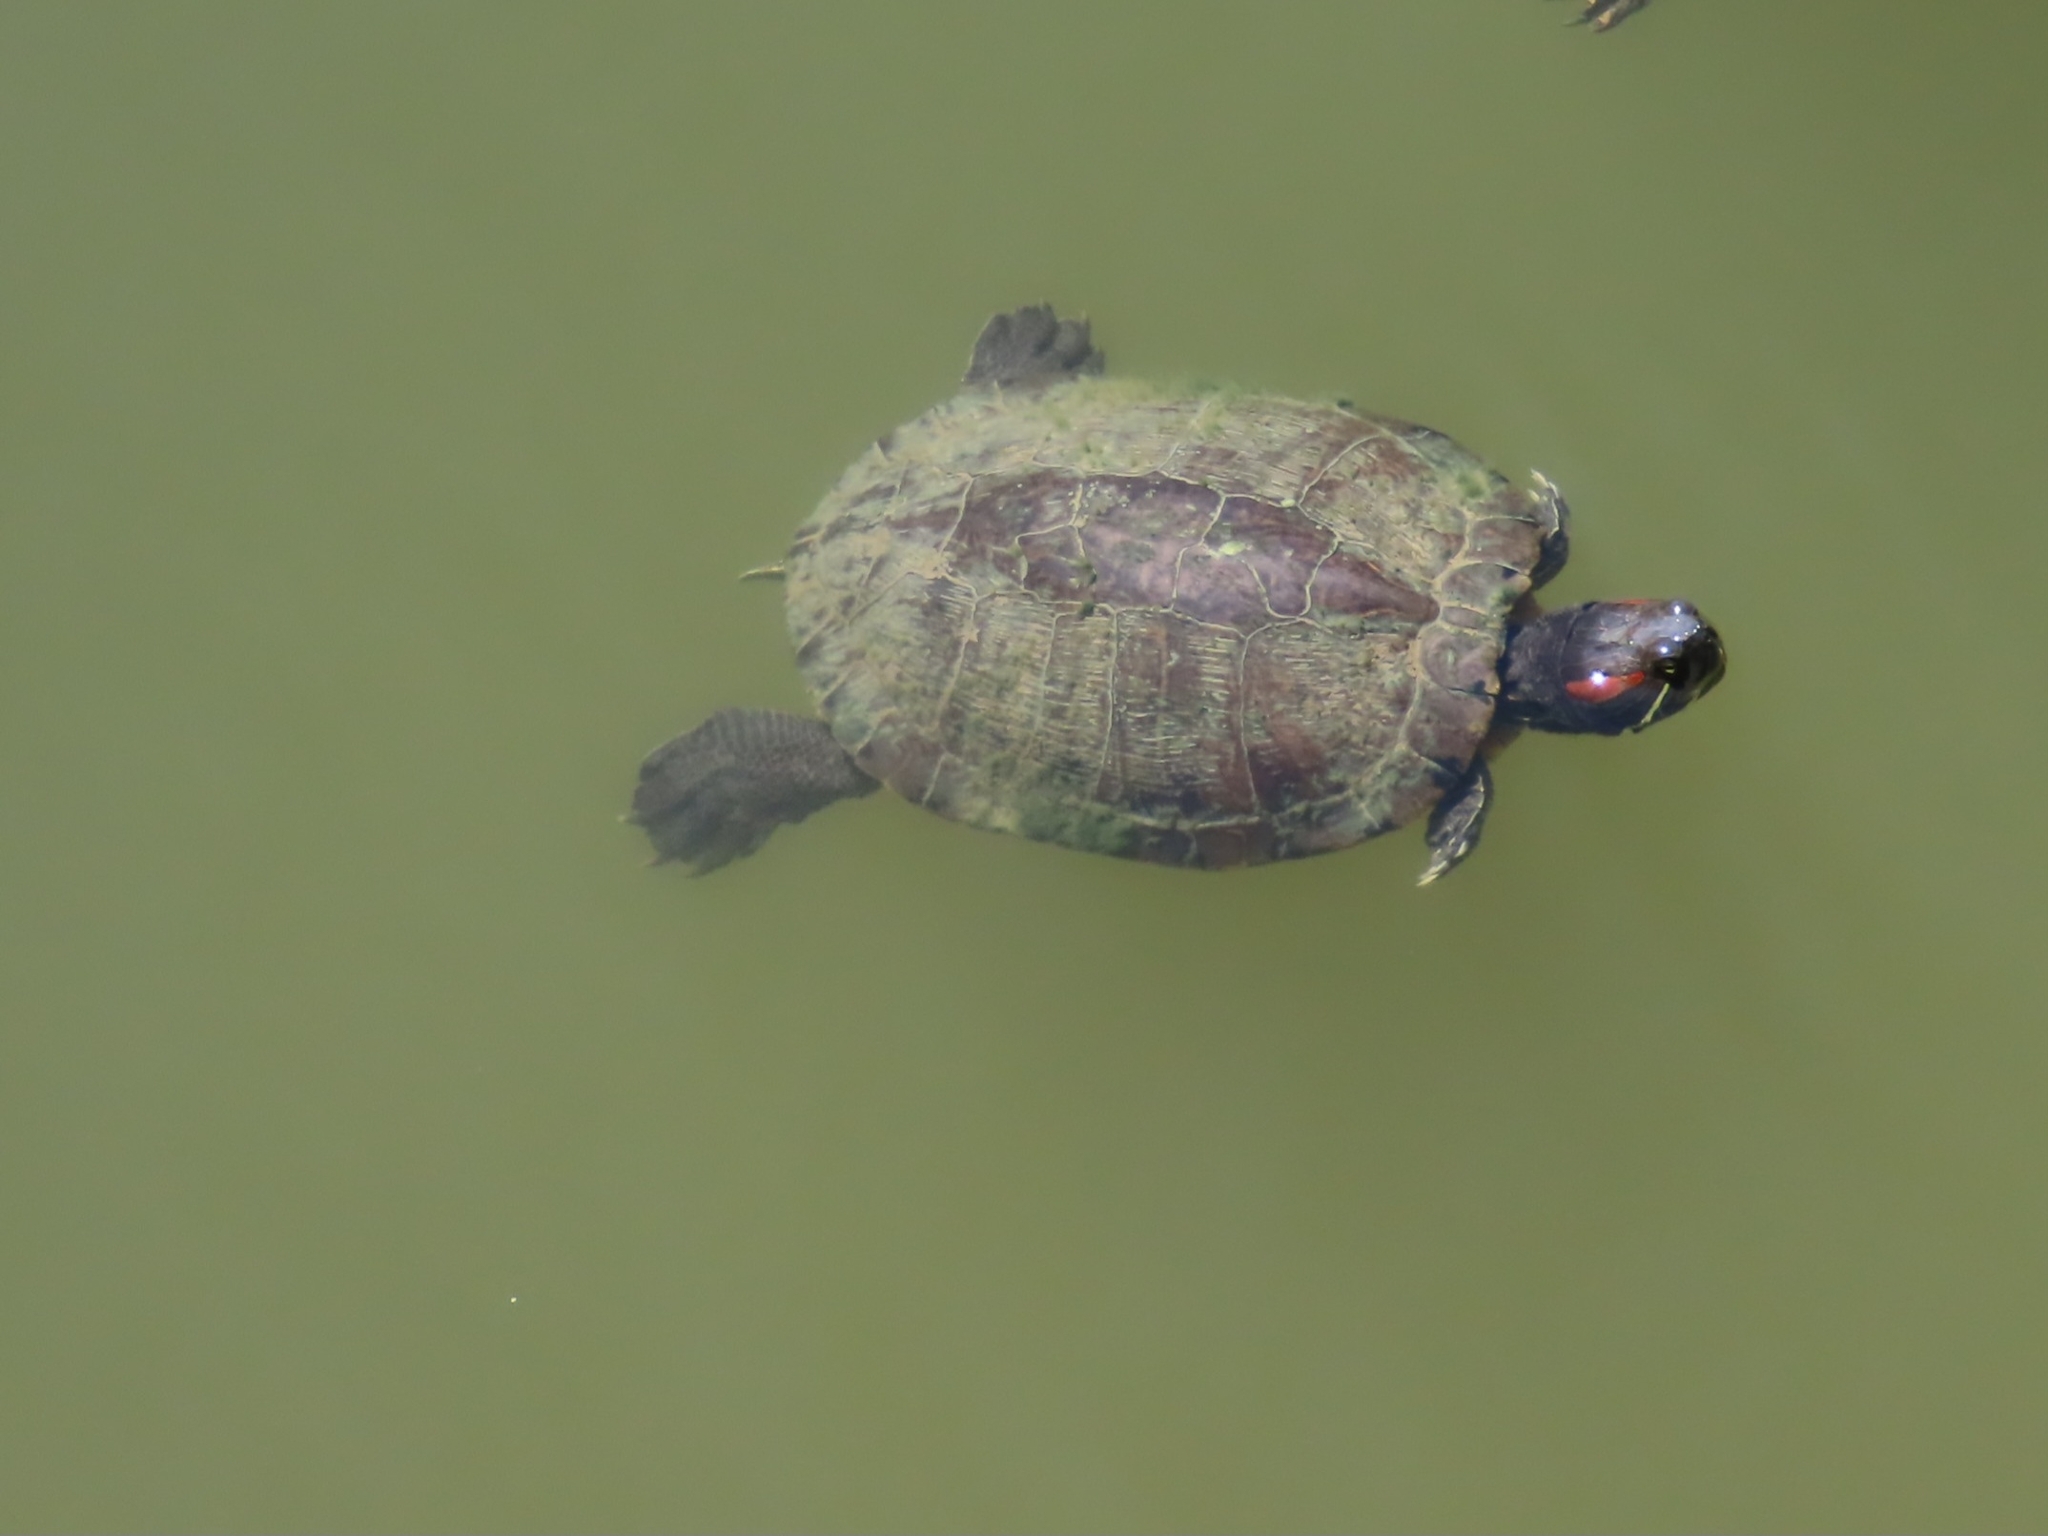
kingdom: Animalia
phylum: Chordata
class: Testudines
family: Emydidae
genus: Trachemys
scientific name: Trachemys scripta
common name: Slider
